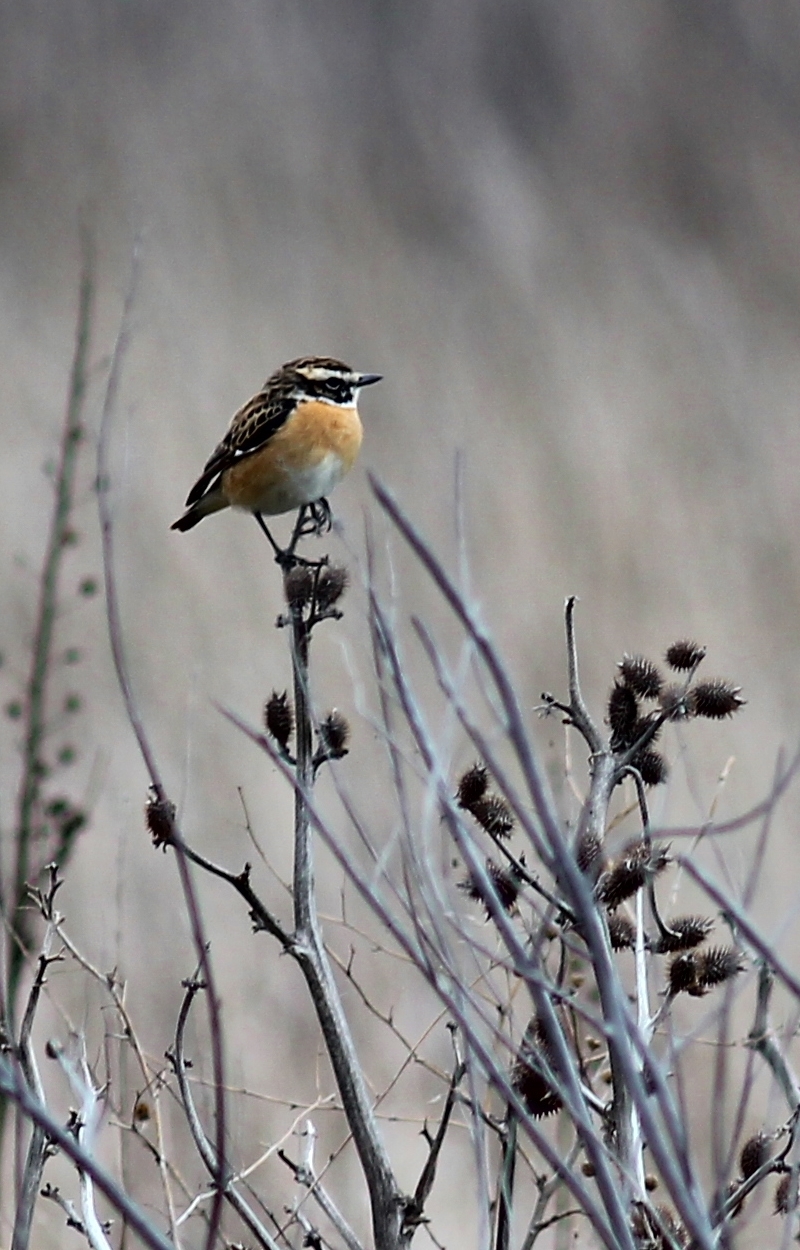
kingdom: Animalia
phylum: Chordata
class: Aves
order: Passeriformes
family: Muscicapidae
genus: Saxicola
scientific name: Saxicola rubetra
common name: Whinchat
